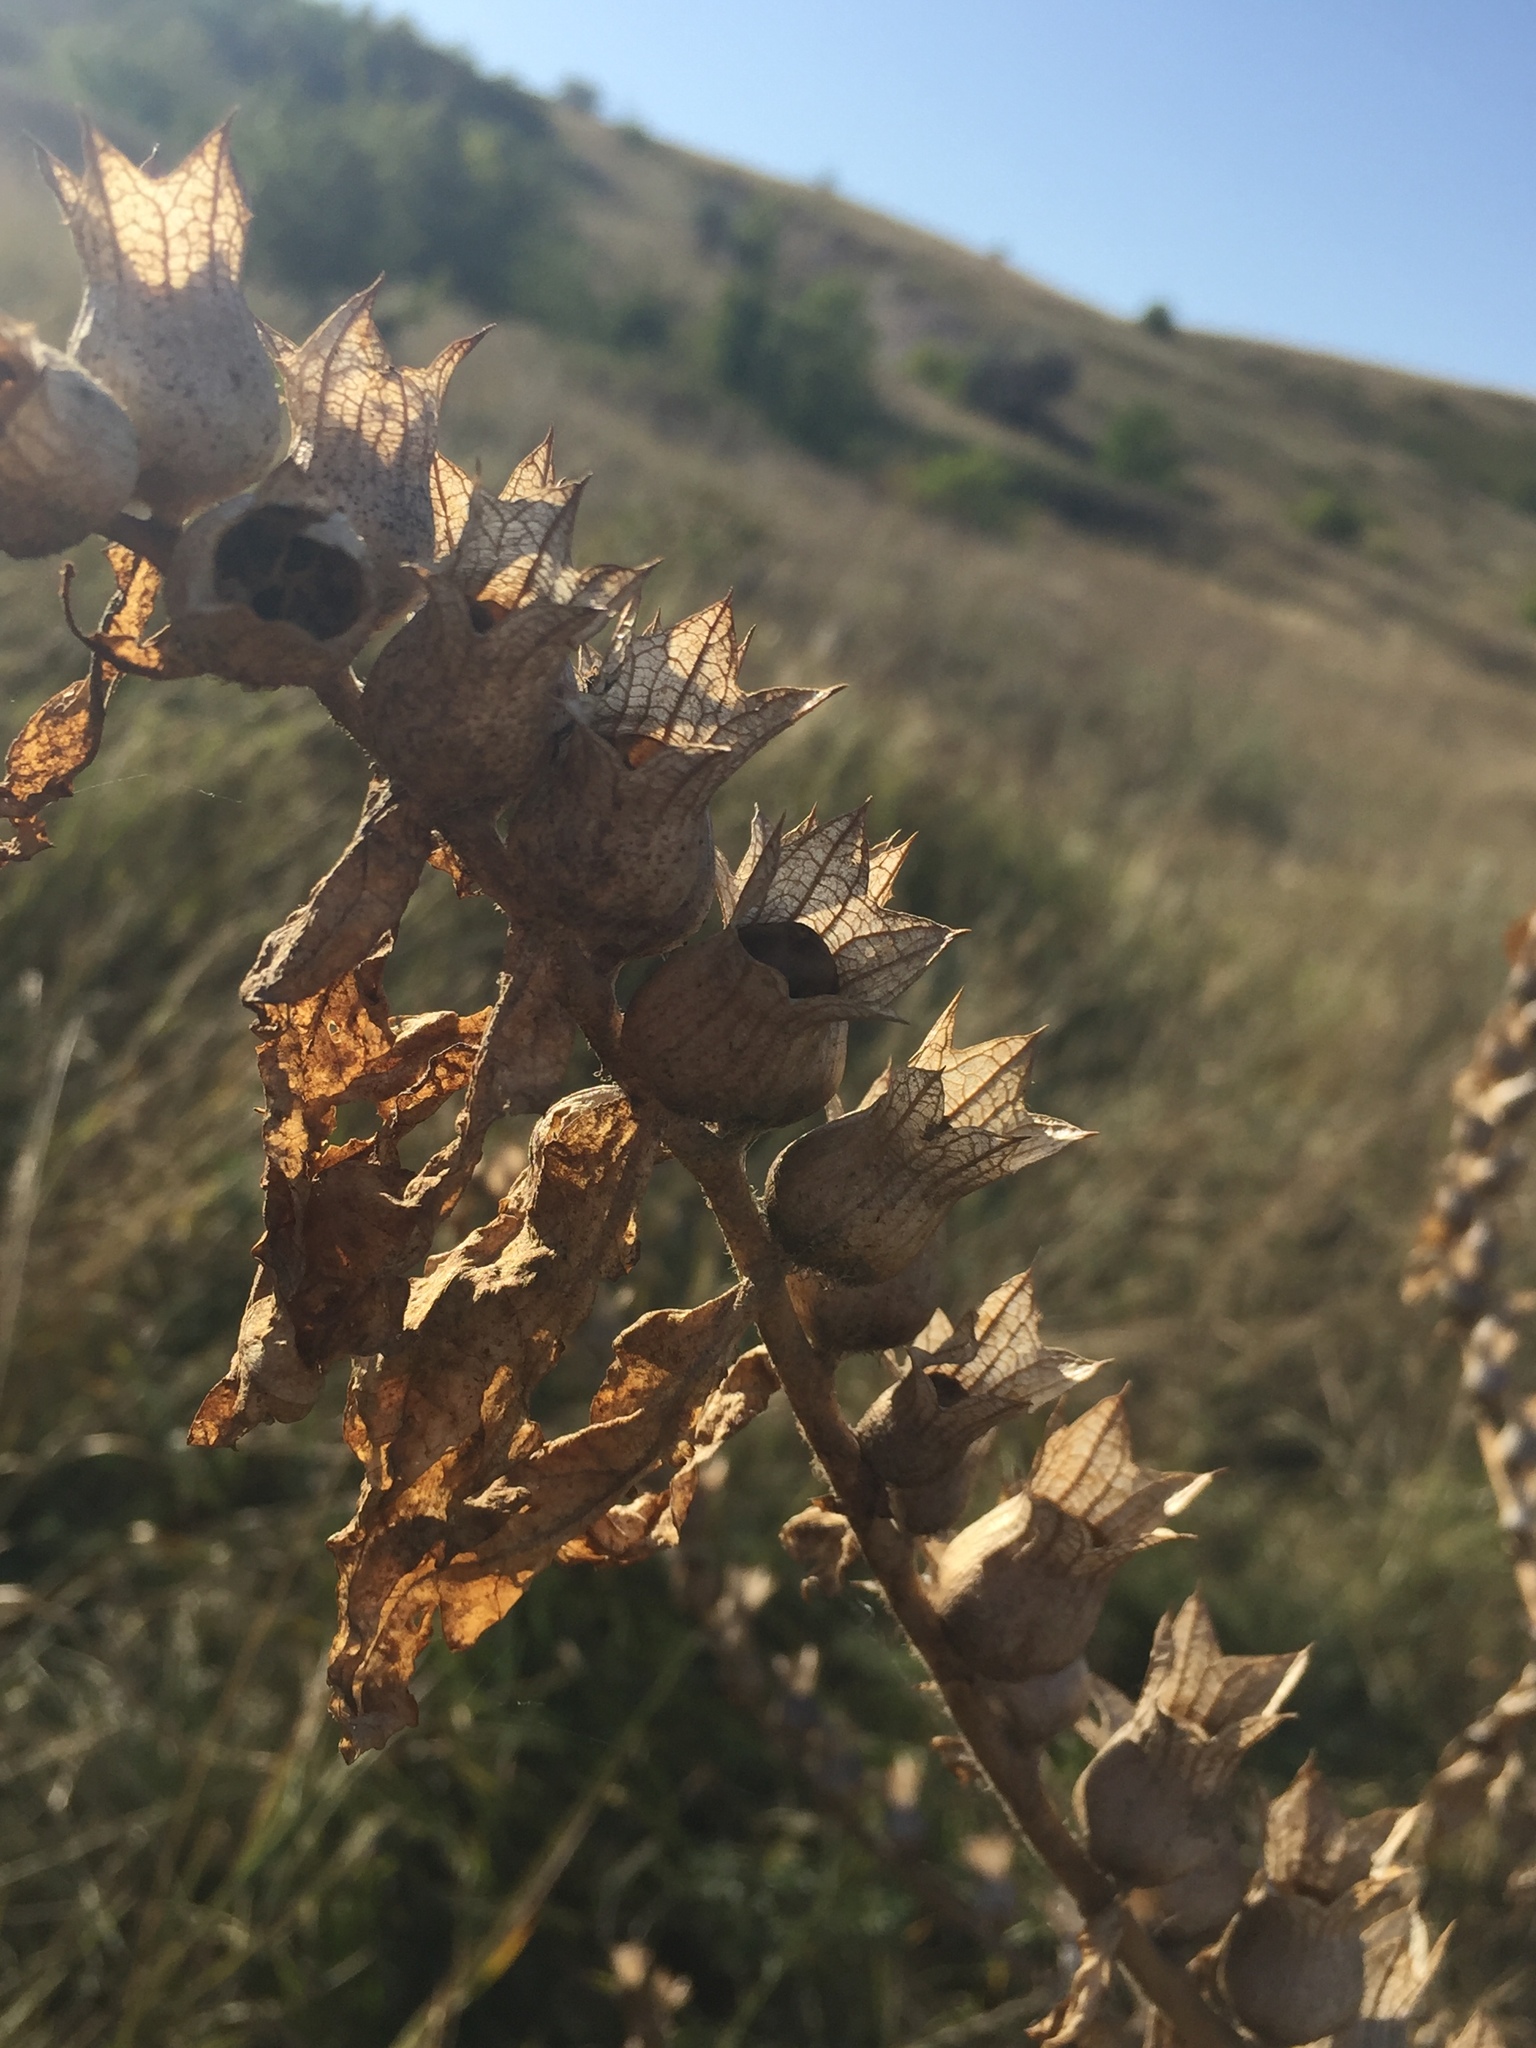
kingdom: Plantae
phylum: Tracheophyta
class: Magnoliopsida
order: Solanales
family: Solanaceae
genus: Hyoscyamus
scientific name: Hyoscyamus niger
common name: Henbane
